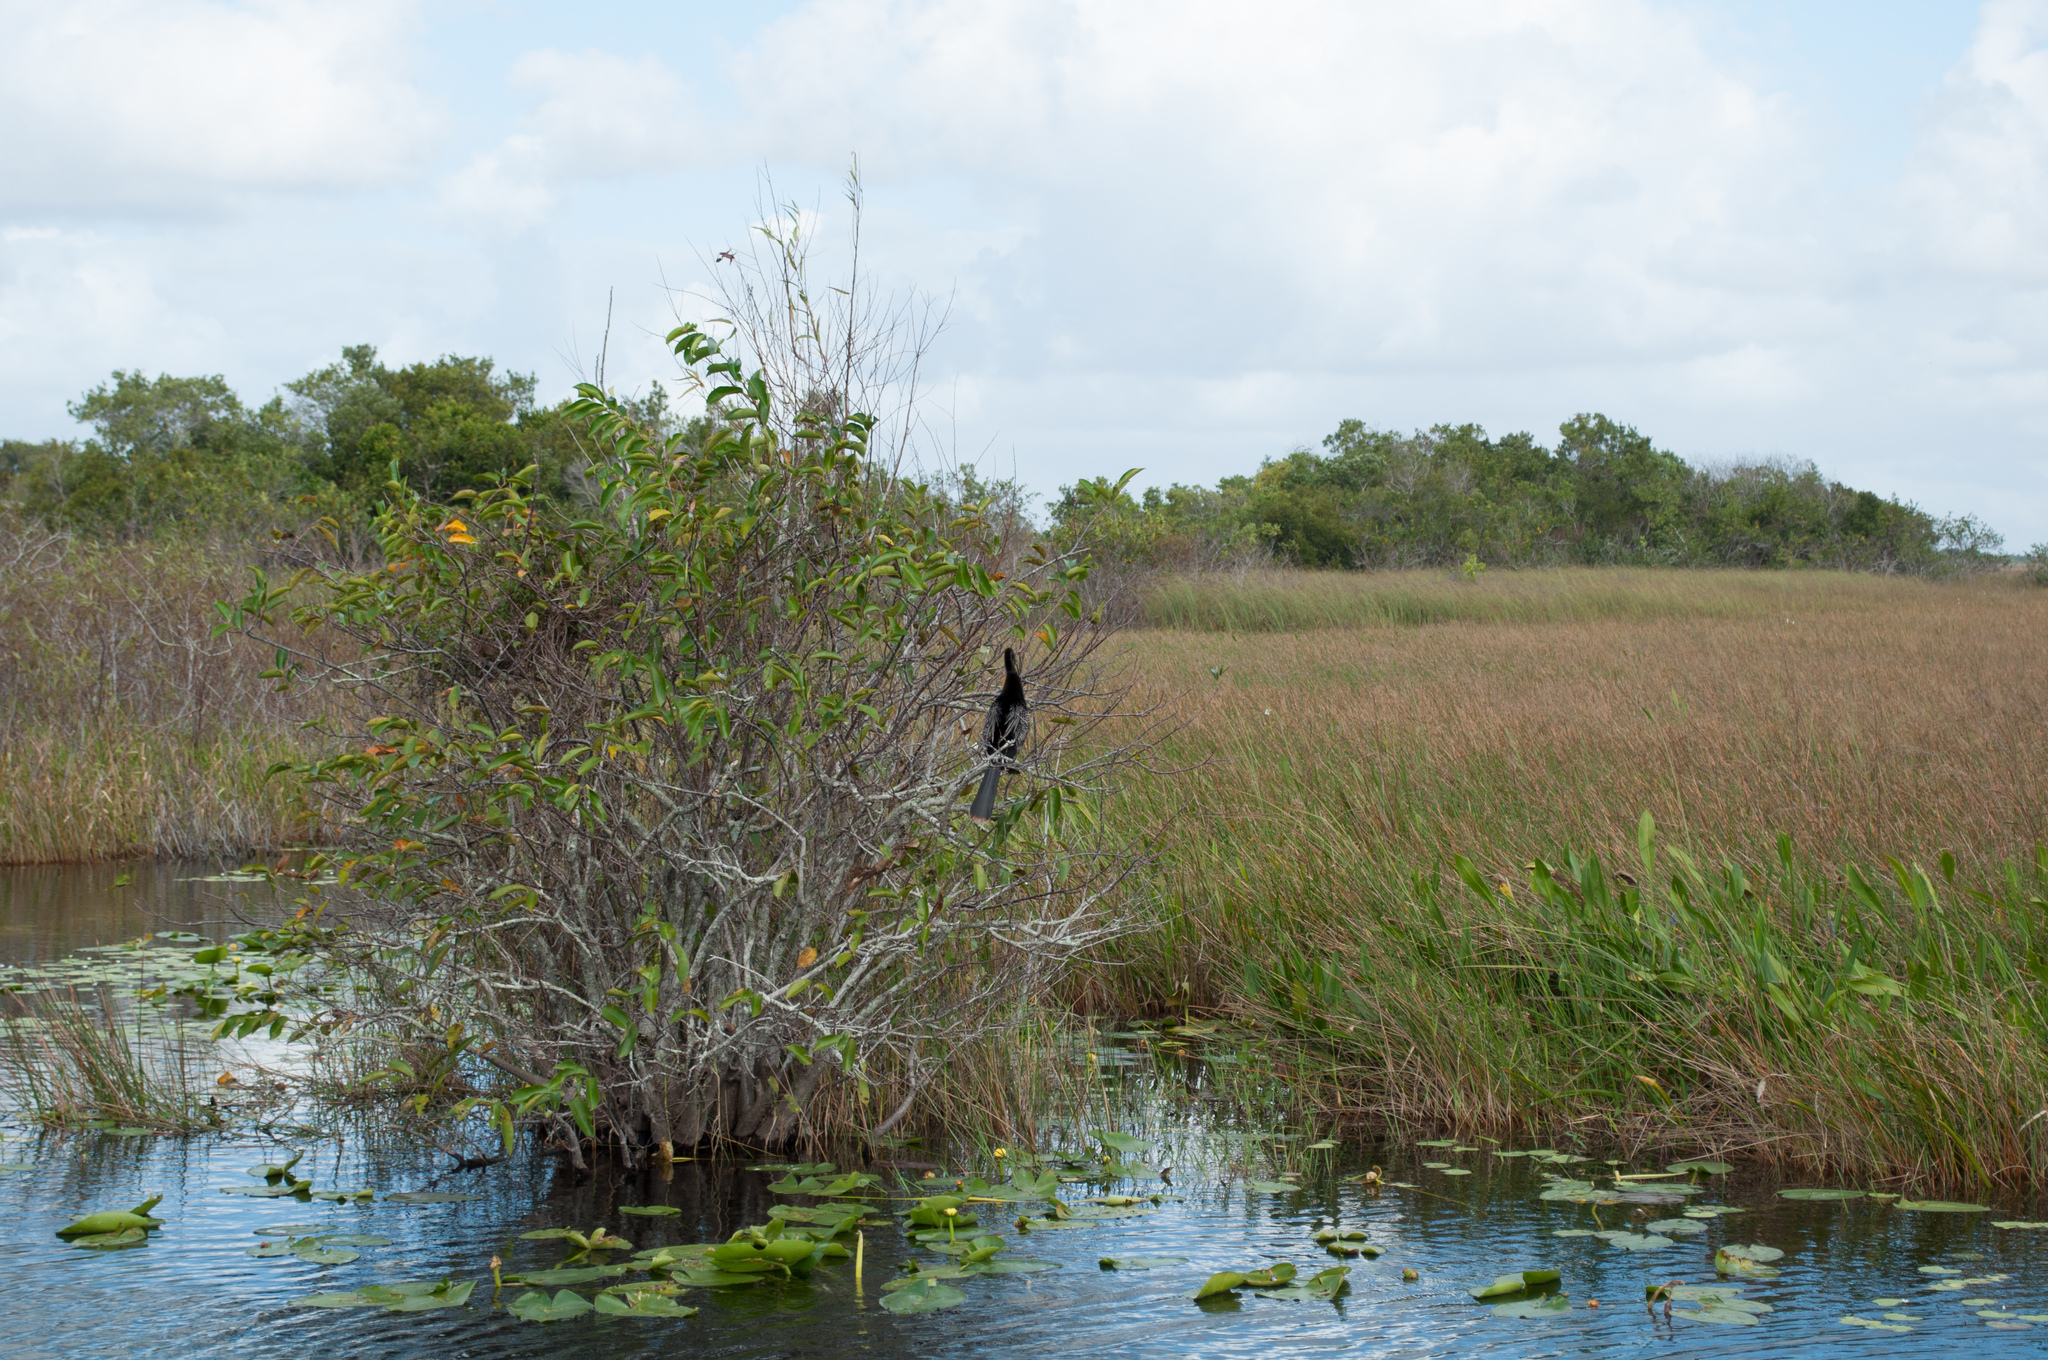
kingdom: Animalia
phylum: Chordata
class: Aves
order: Suliformes
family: Anhingidae
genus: Anhinga
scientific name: Anhinga anhinga
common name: Anhinga
